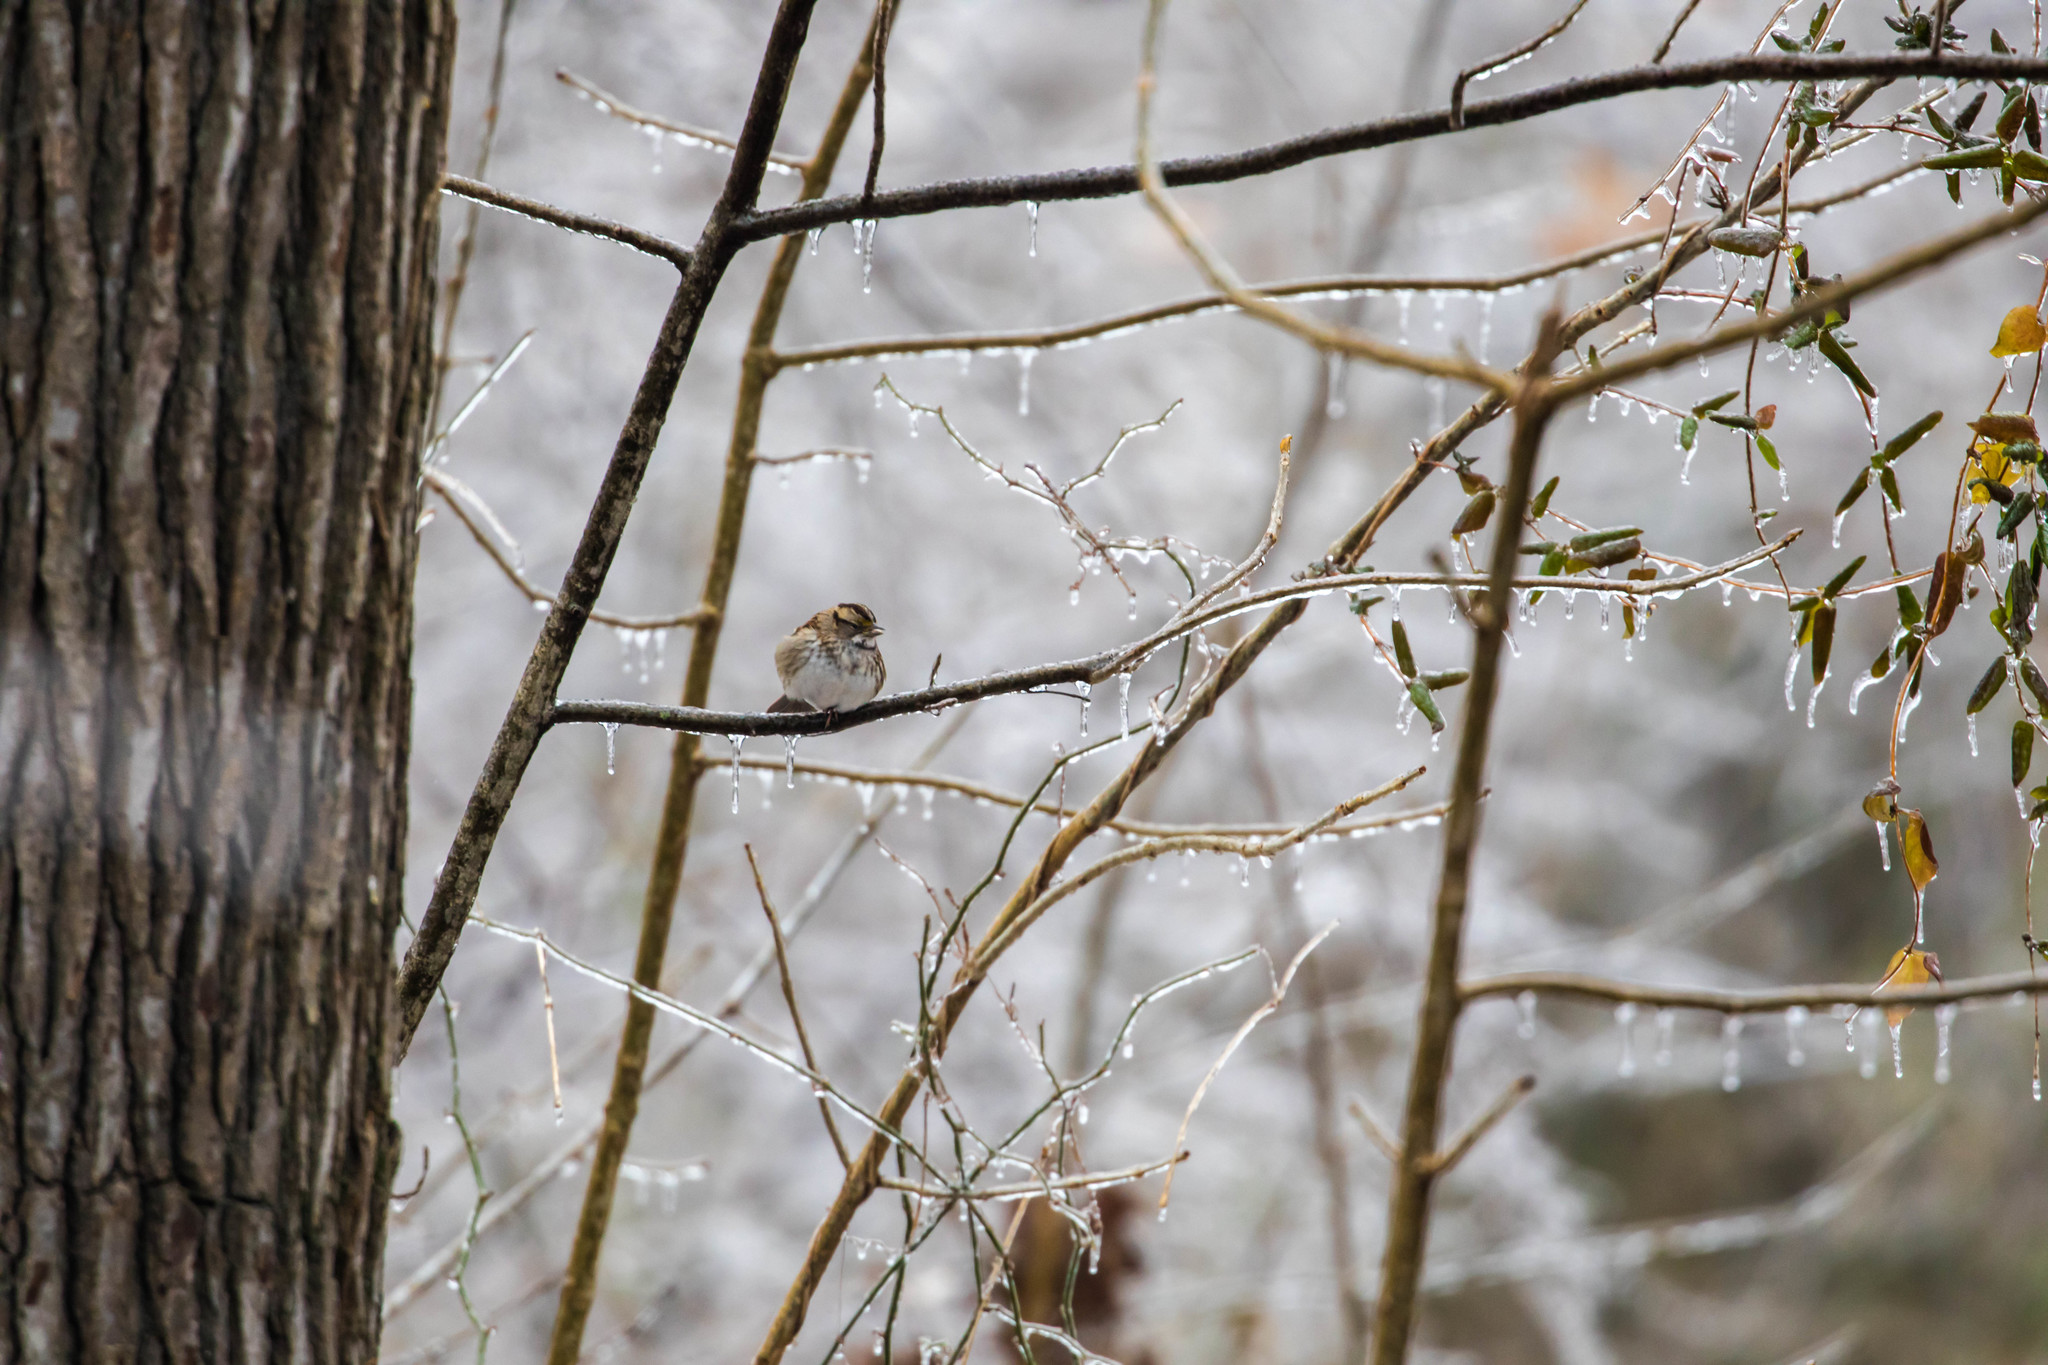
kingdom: Animalia
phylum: Chordata
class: Aves
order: Passeriformes
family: Passerellidae
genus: Zonotrichia
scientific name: Zonotrichia albicollis
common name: White-throated sparrow
